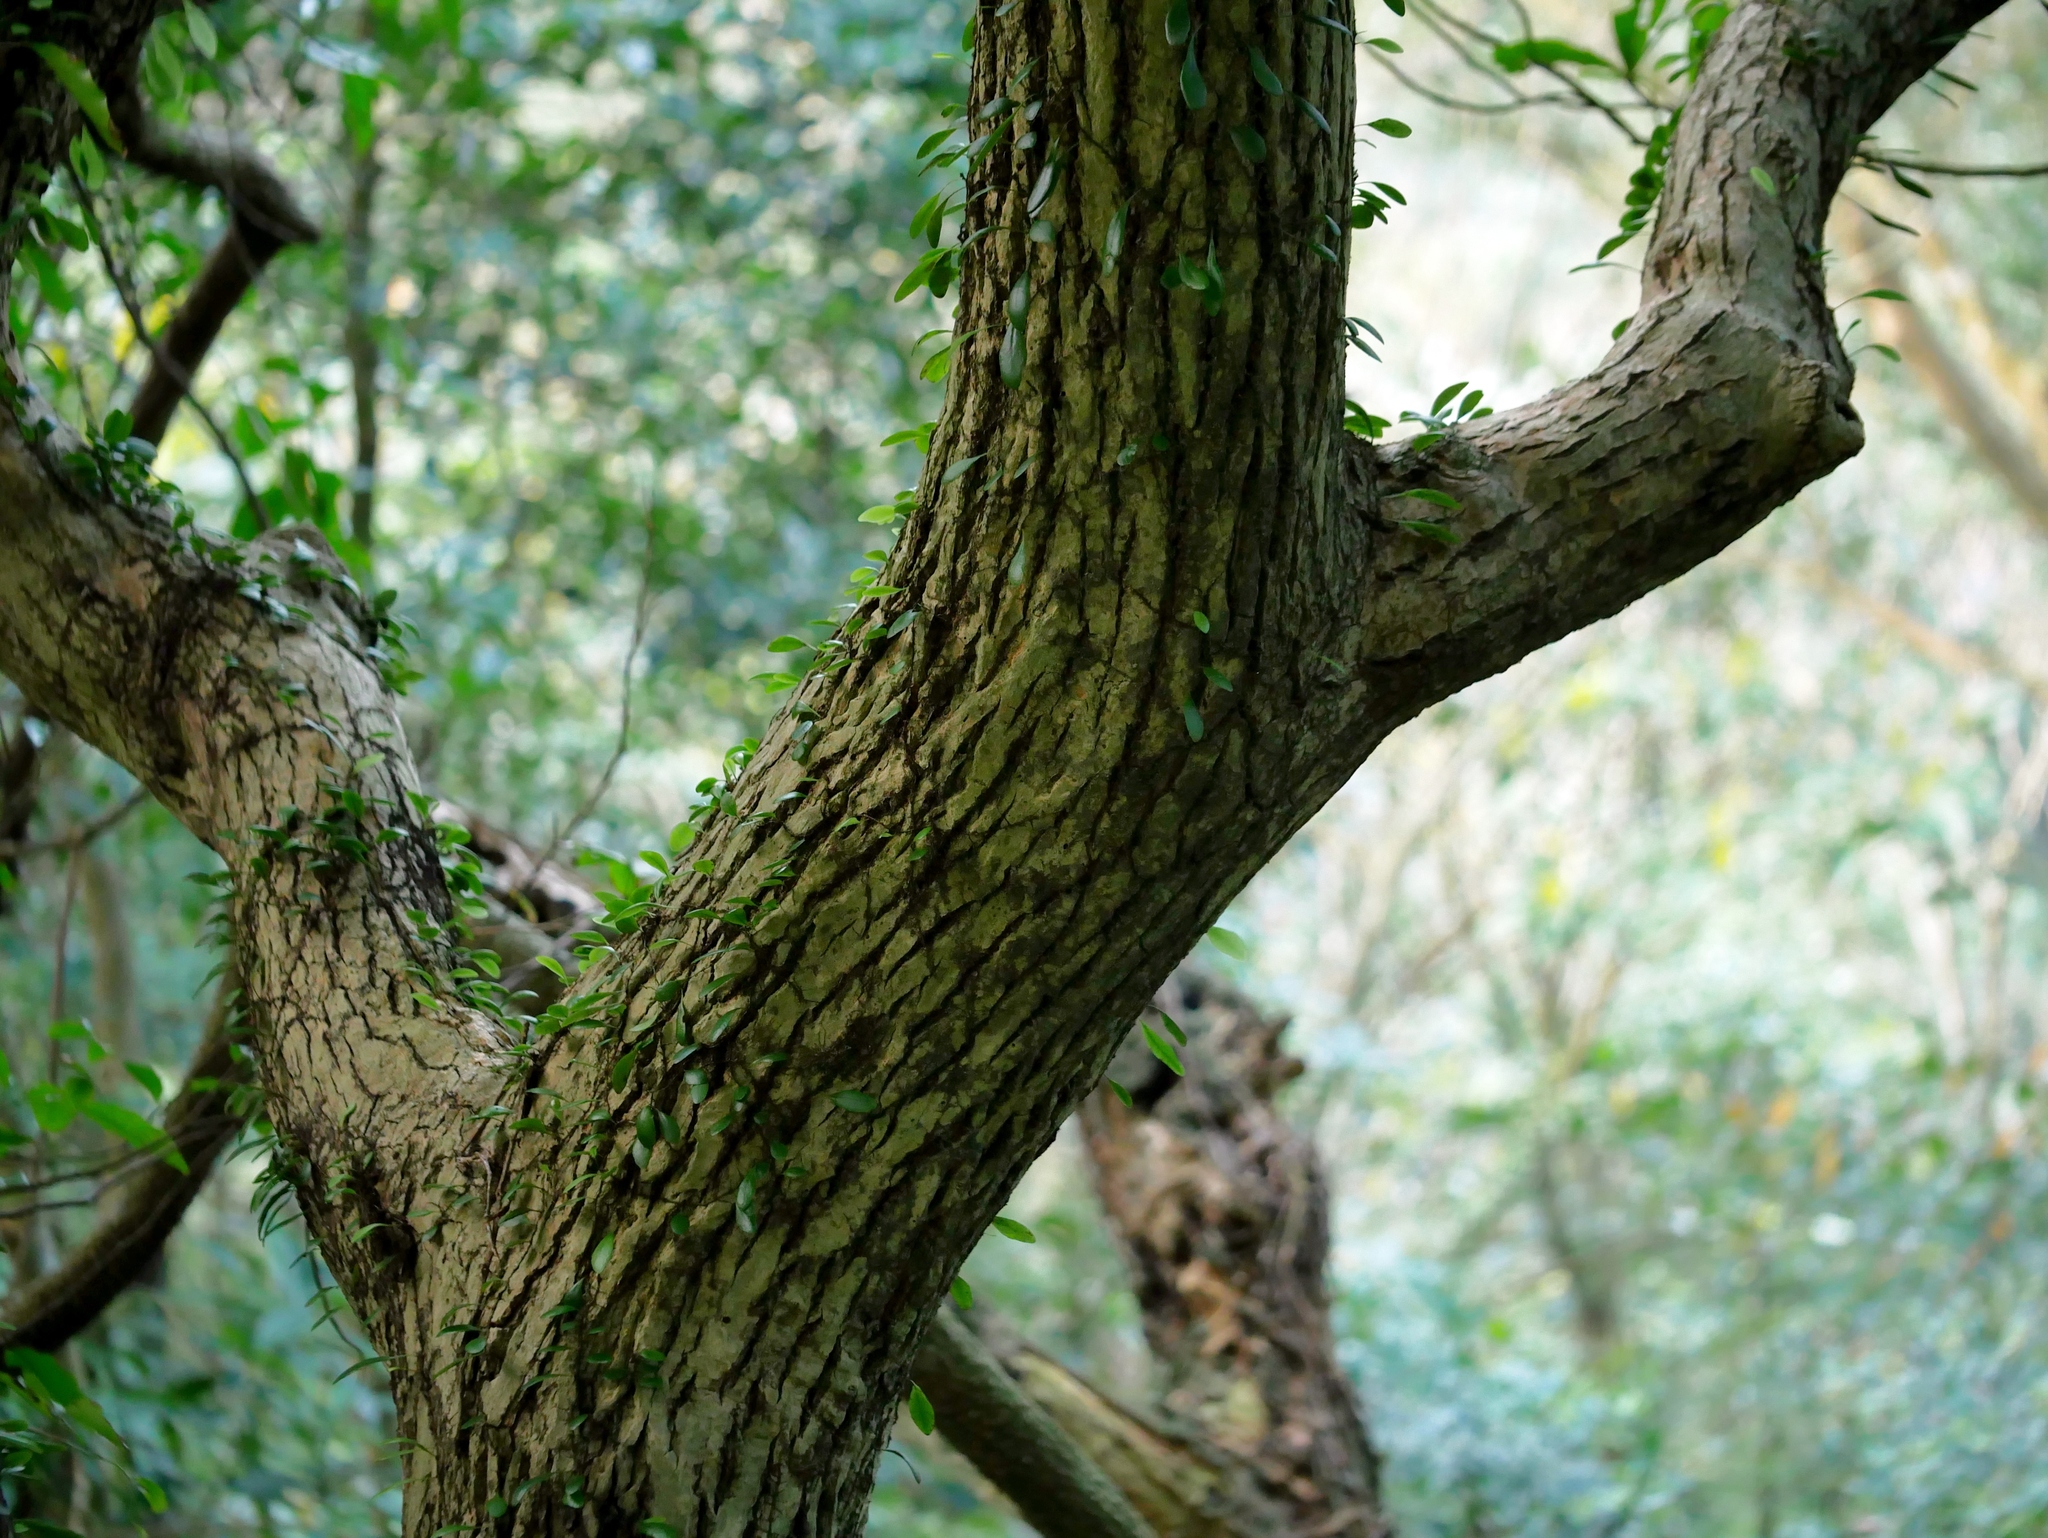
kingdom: Plantae
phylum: Tracheophyta
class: Magnoliopsida
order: Boraginales
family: Ehretiaceae
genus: Ehretia
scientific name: Ehretia dicksonii
